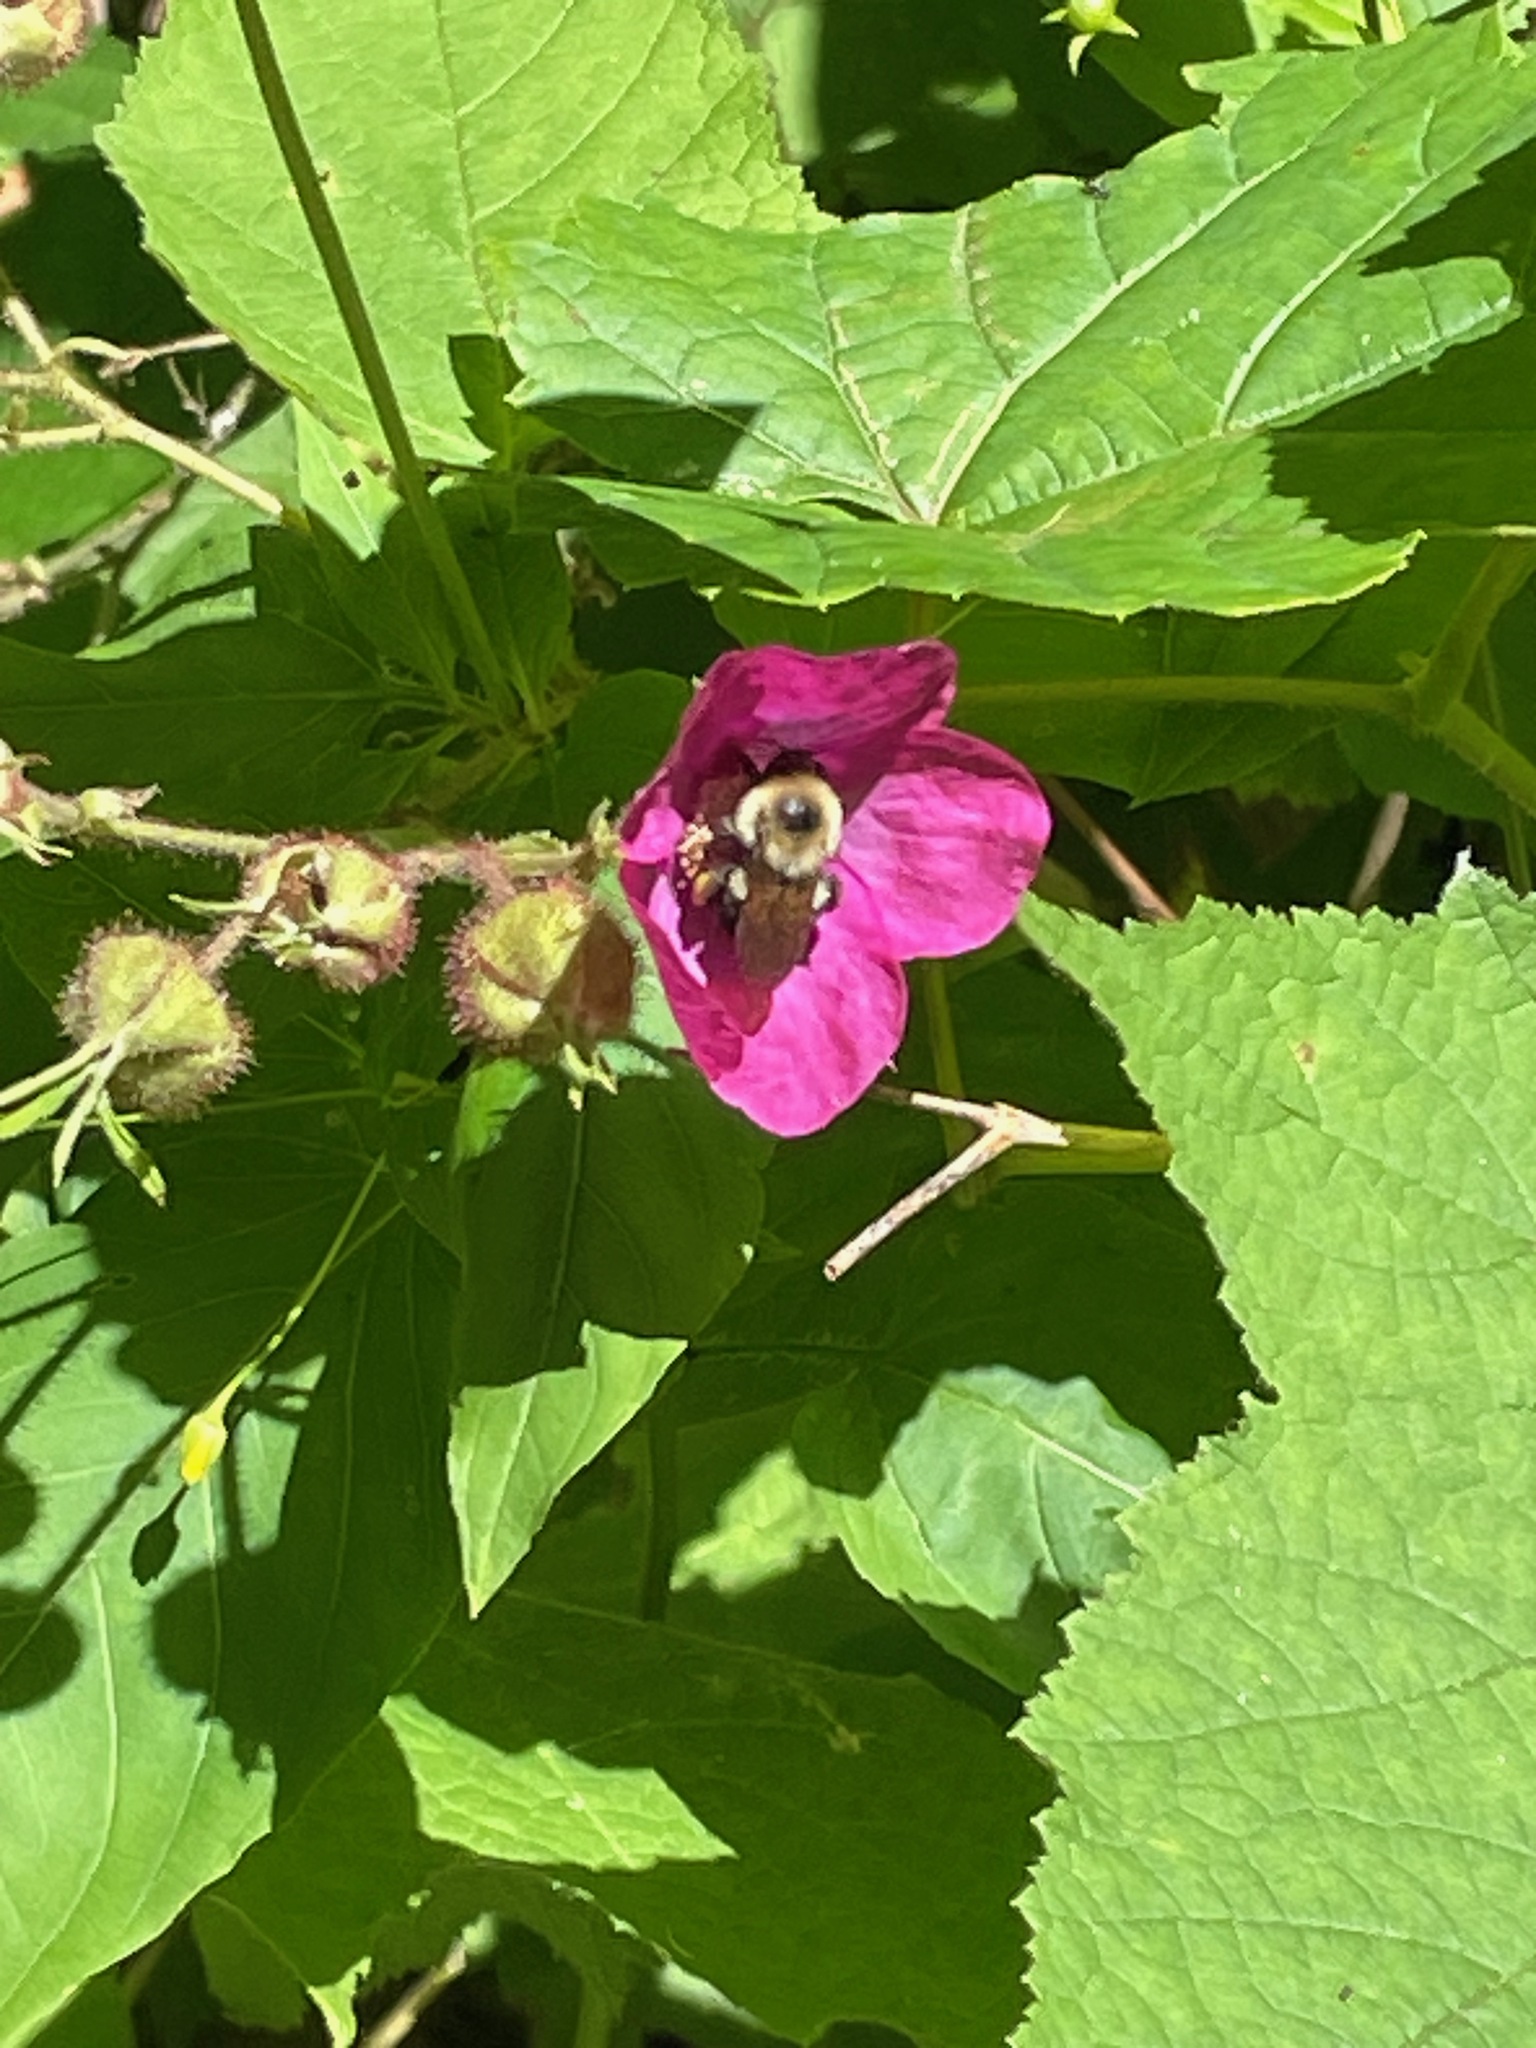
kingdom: Animalia
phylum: Arthropoda
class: Insecta
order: Hymenoptera
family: Apidae
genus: Bombus
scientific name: Bombus bimaculatus
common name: Two-spotted bumble bee
